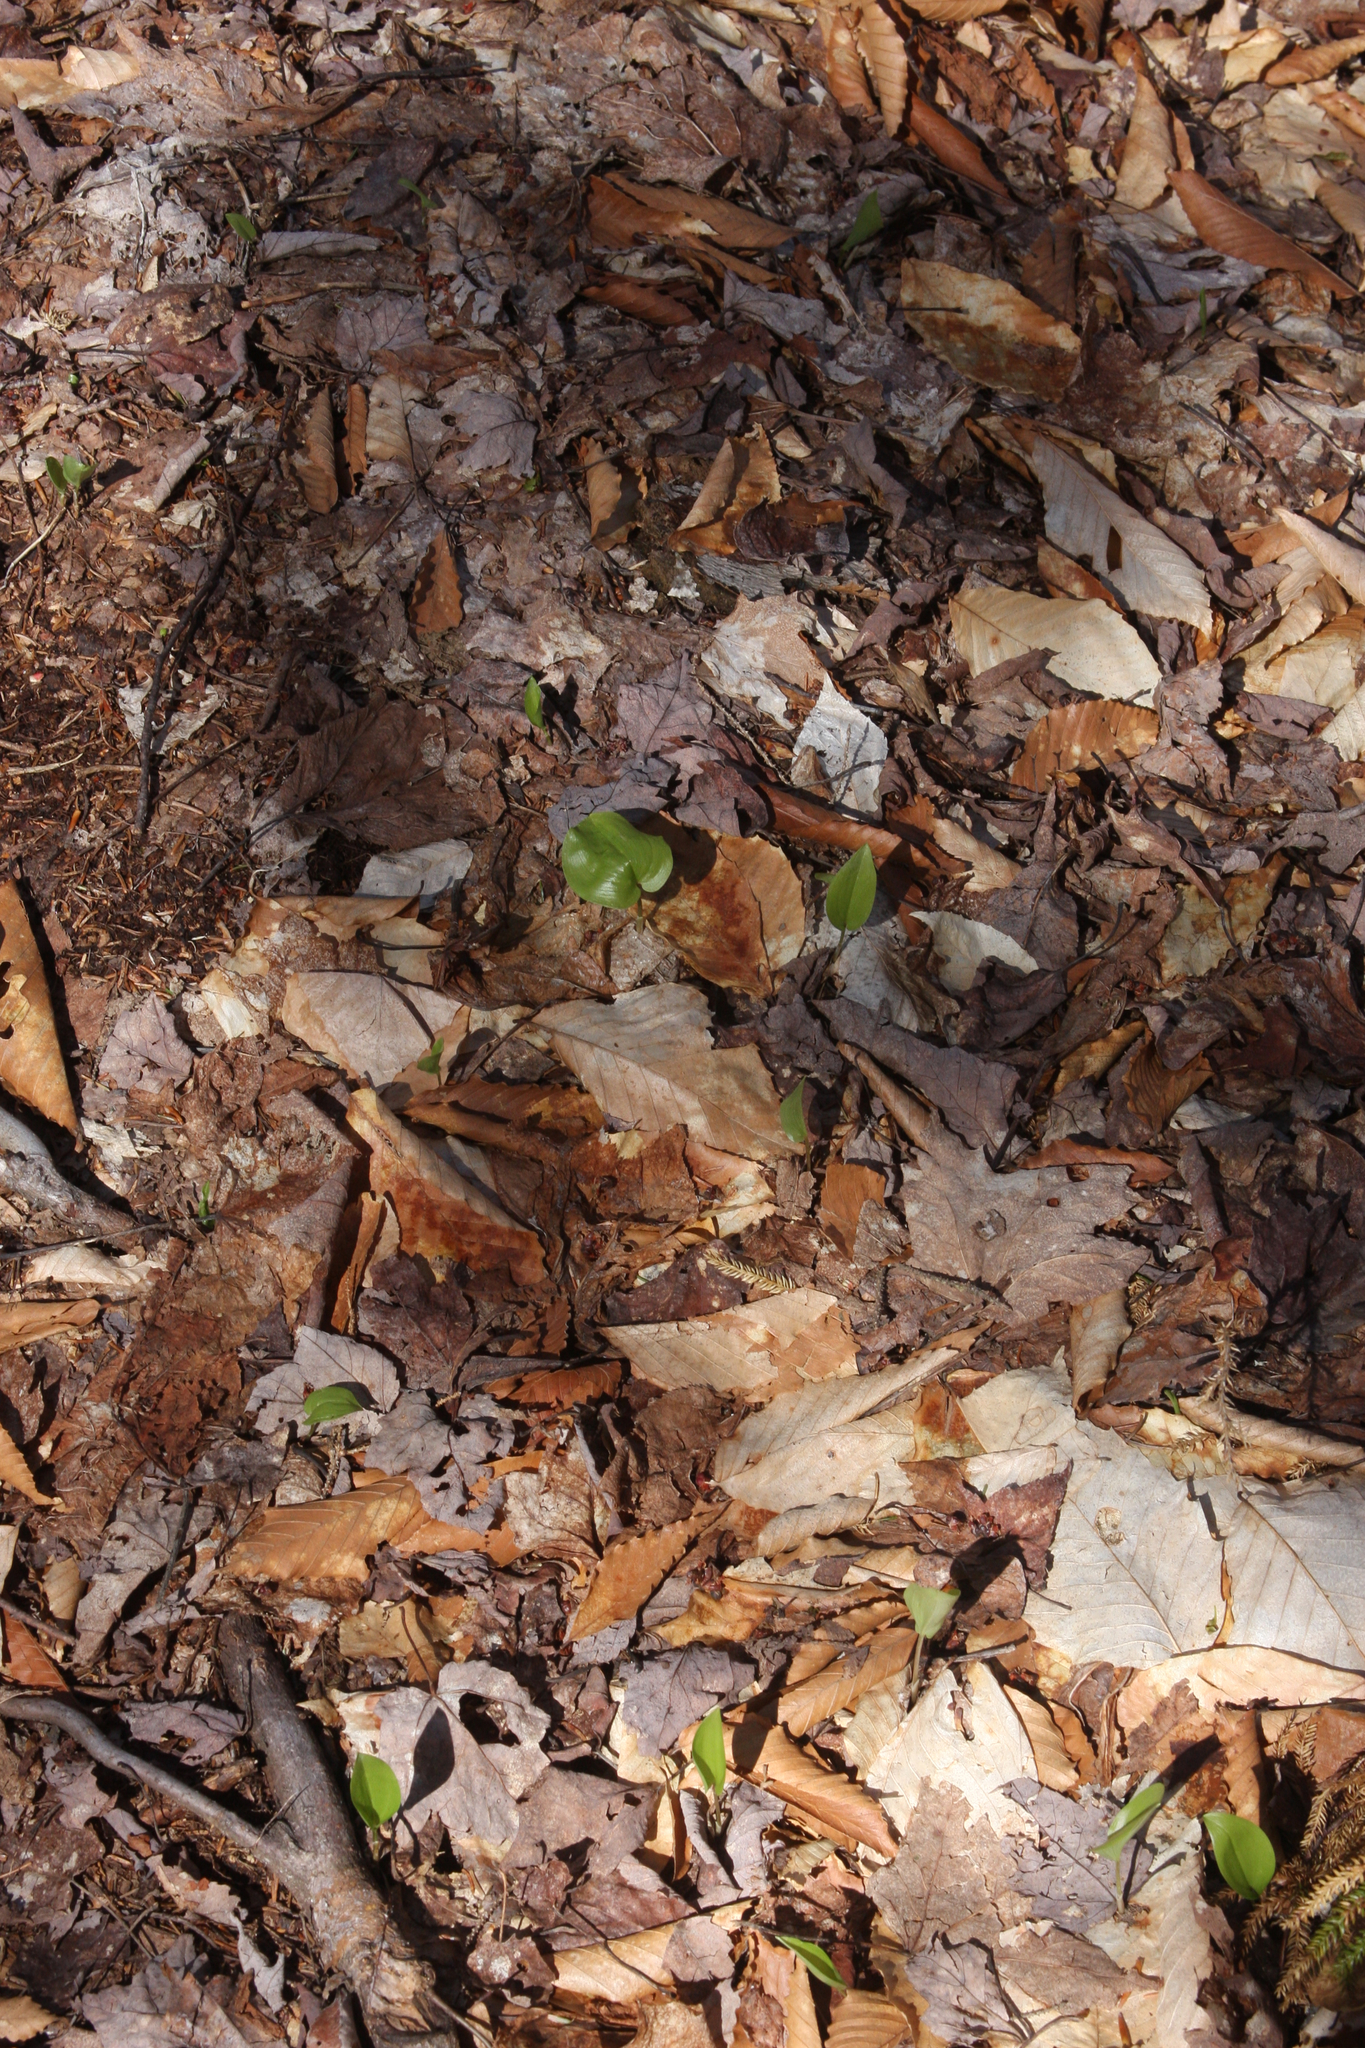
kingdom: Plantae
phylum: Tracheophyta
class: Liliopsida
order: Asparagales
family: Asparagaceae
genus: Maianthemum
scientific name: Maianthemum canadense
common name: False lily-of-the-valley
